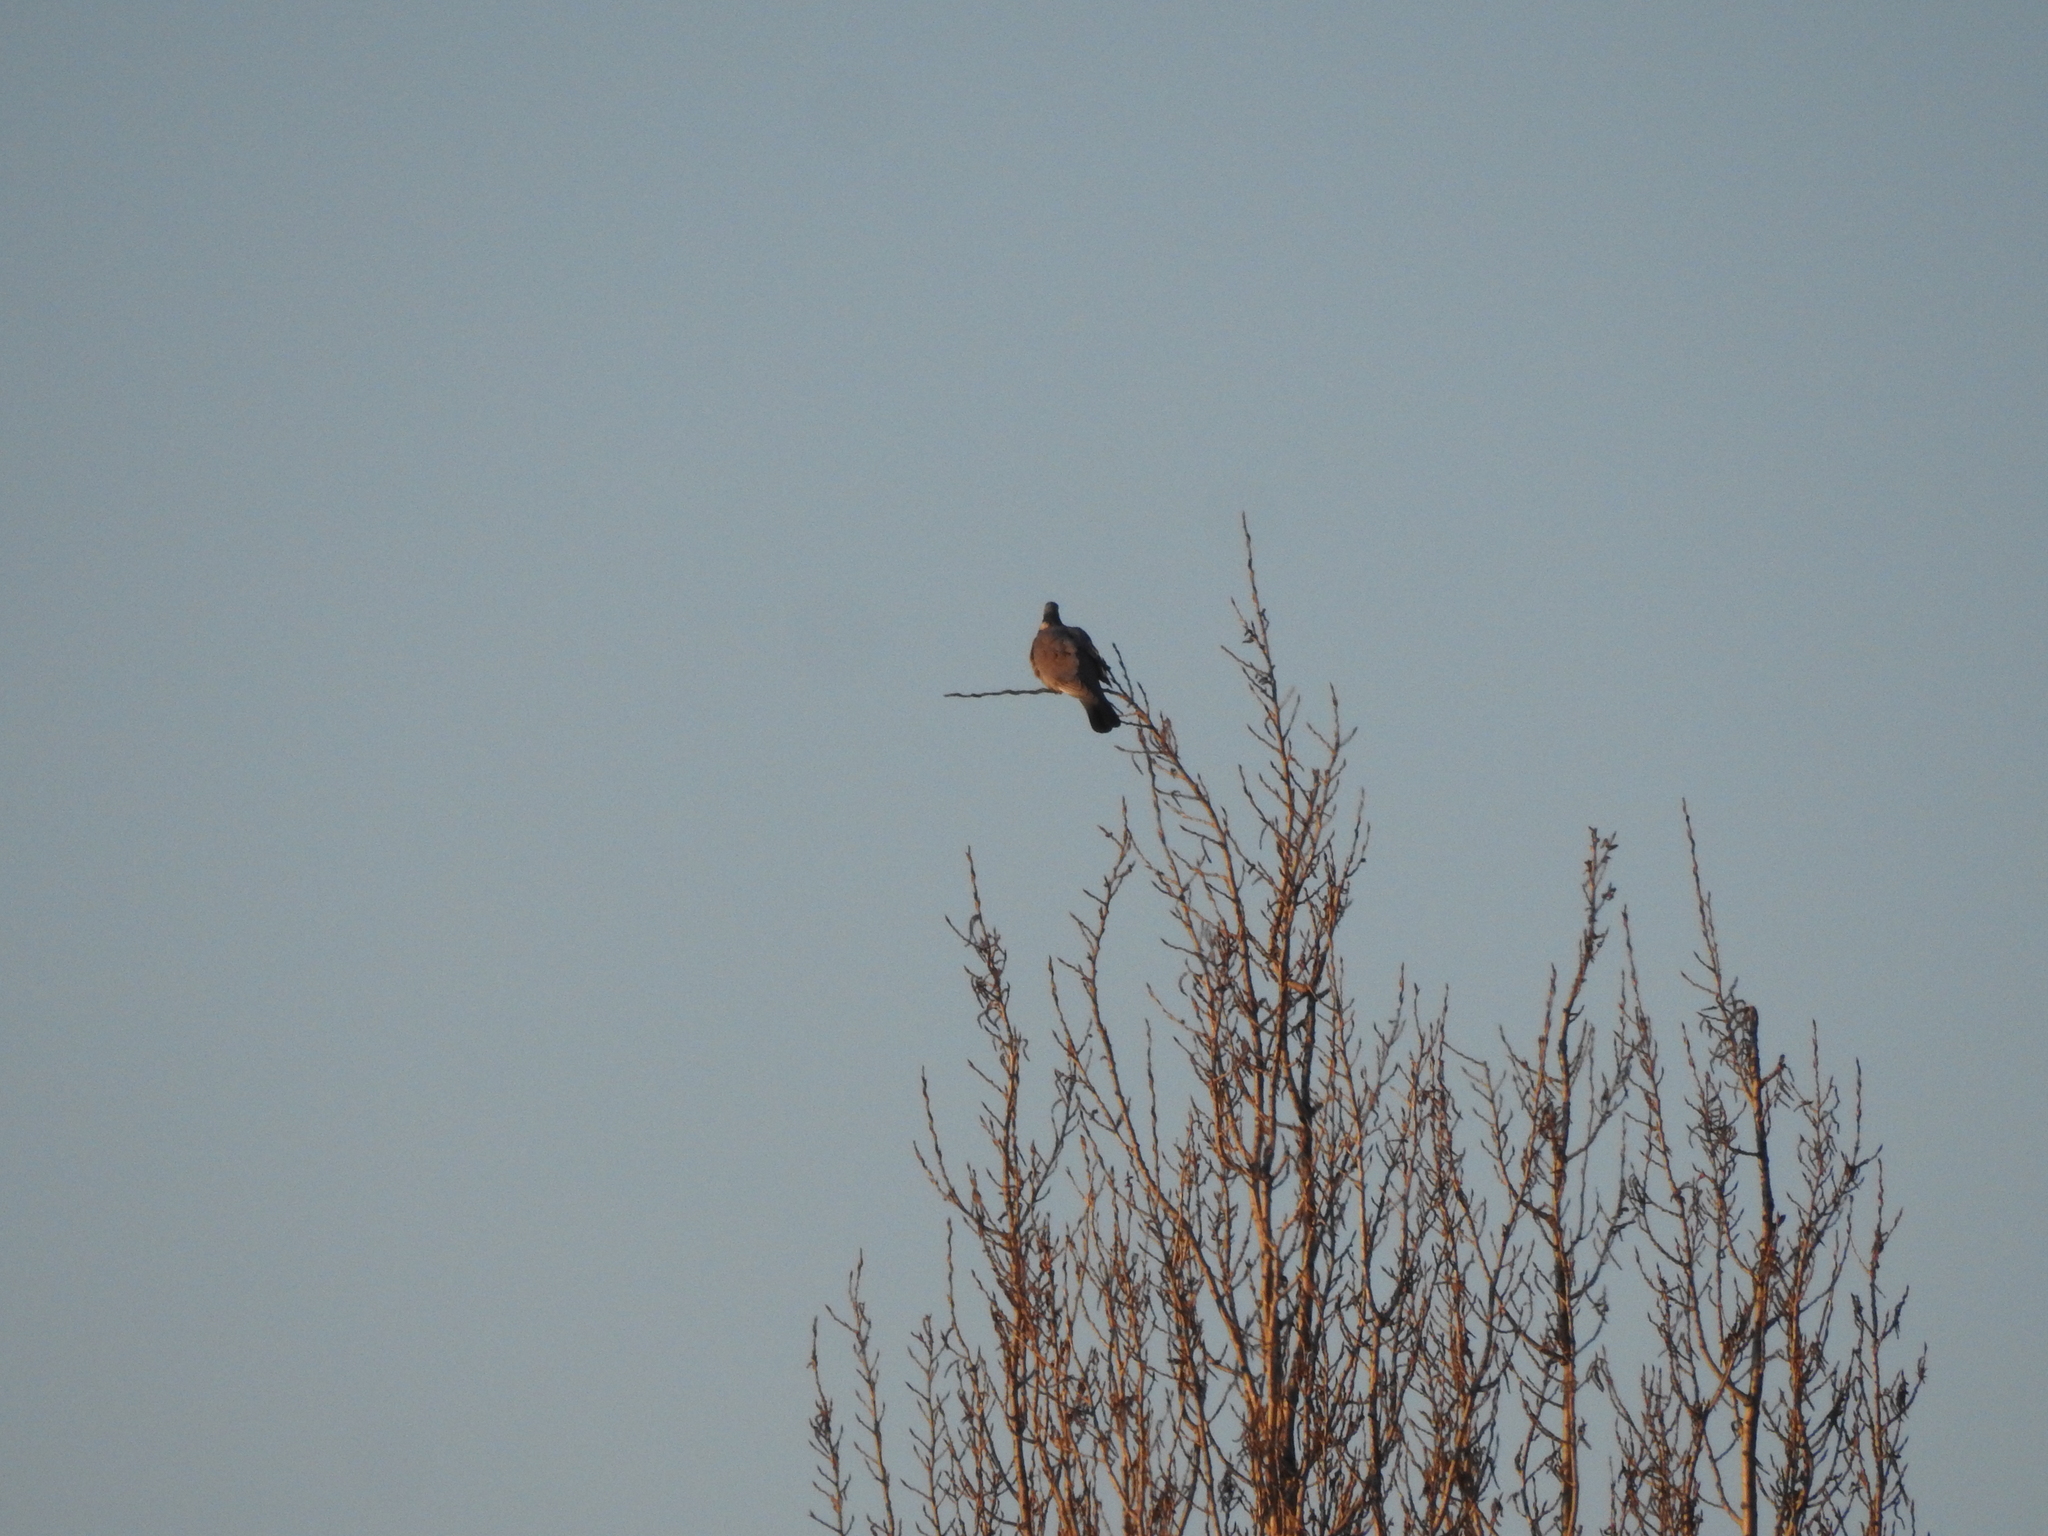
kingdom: Animalia
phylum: Chordata
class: Aves
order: Columbiformes
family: Columbidae
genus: Columba
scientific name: Columba palumbus
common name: Common wood pigeon
